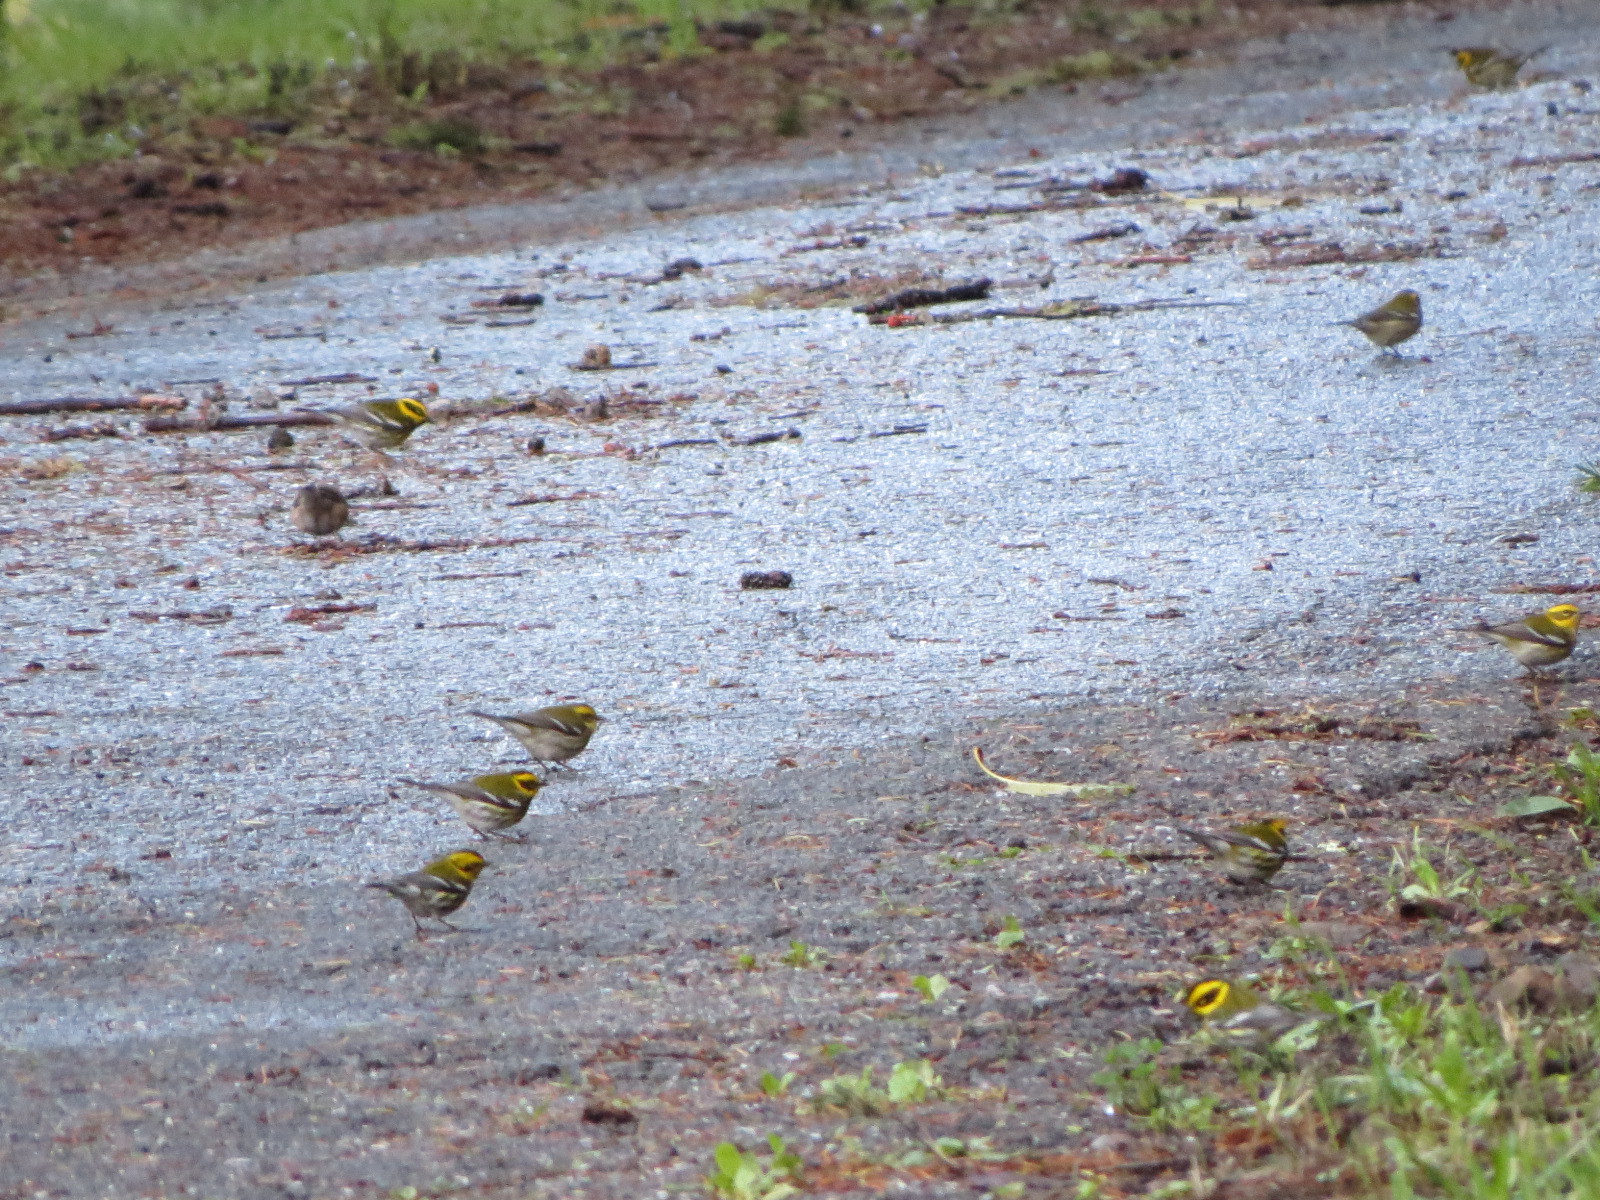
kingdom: Animalia
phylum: Chordata
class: Aves
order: Passeriformes
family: Parulidae
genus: Setophaga
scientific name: Setophaga townsendi
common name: Townsend's warbler
